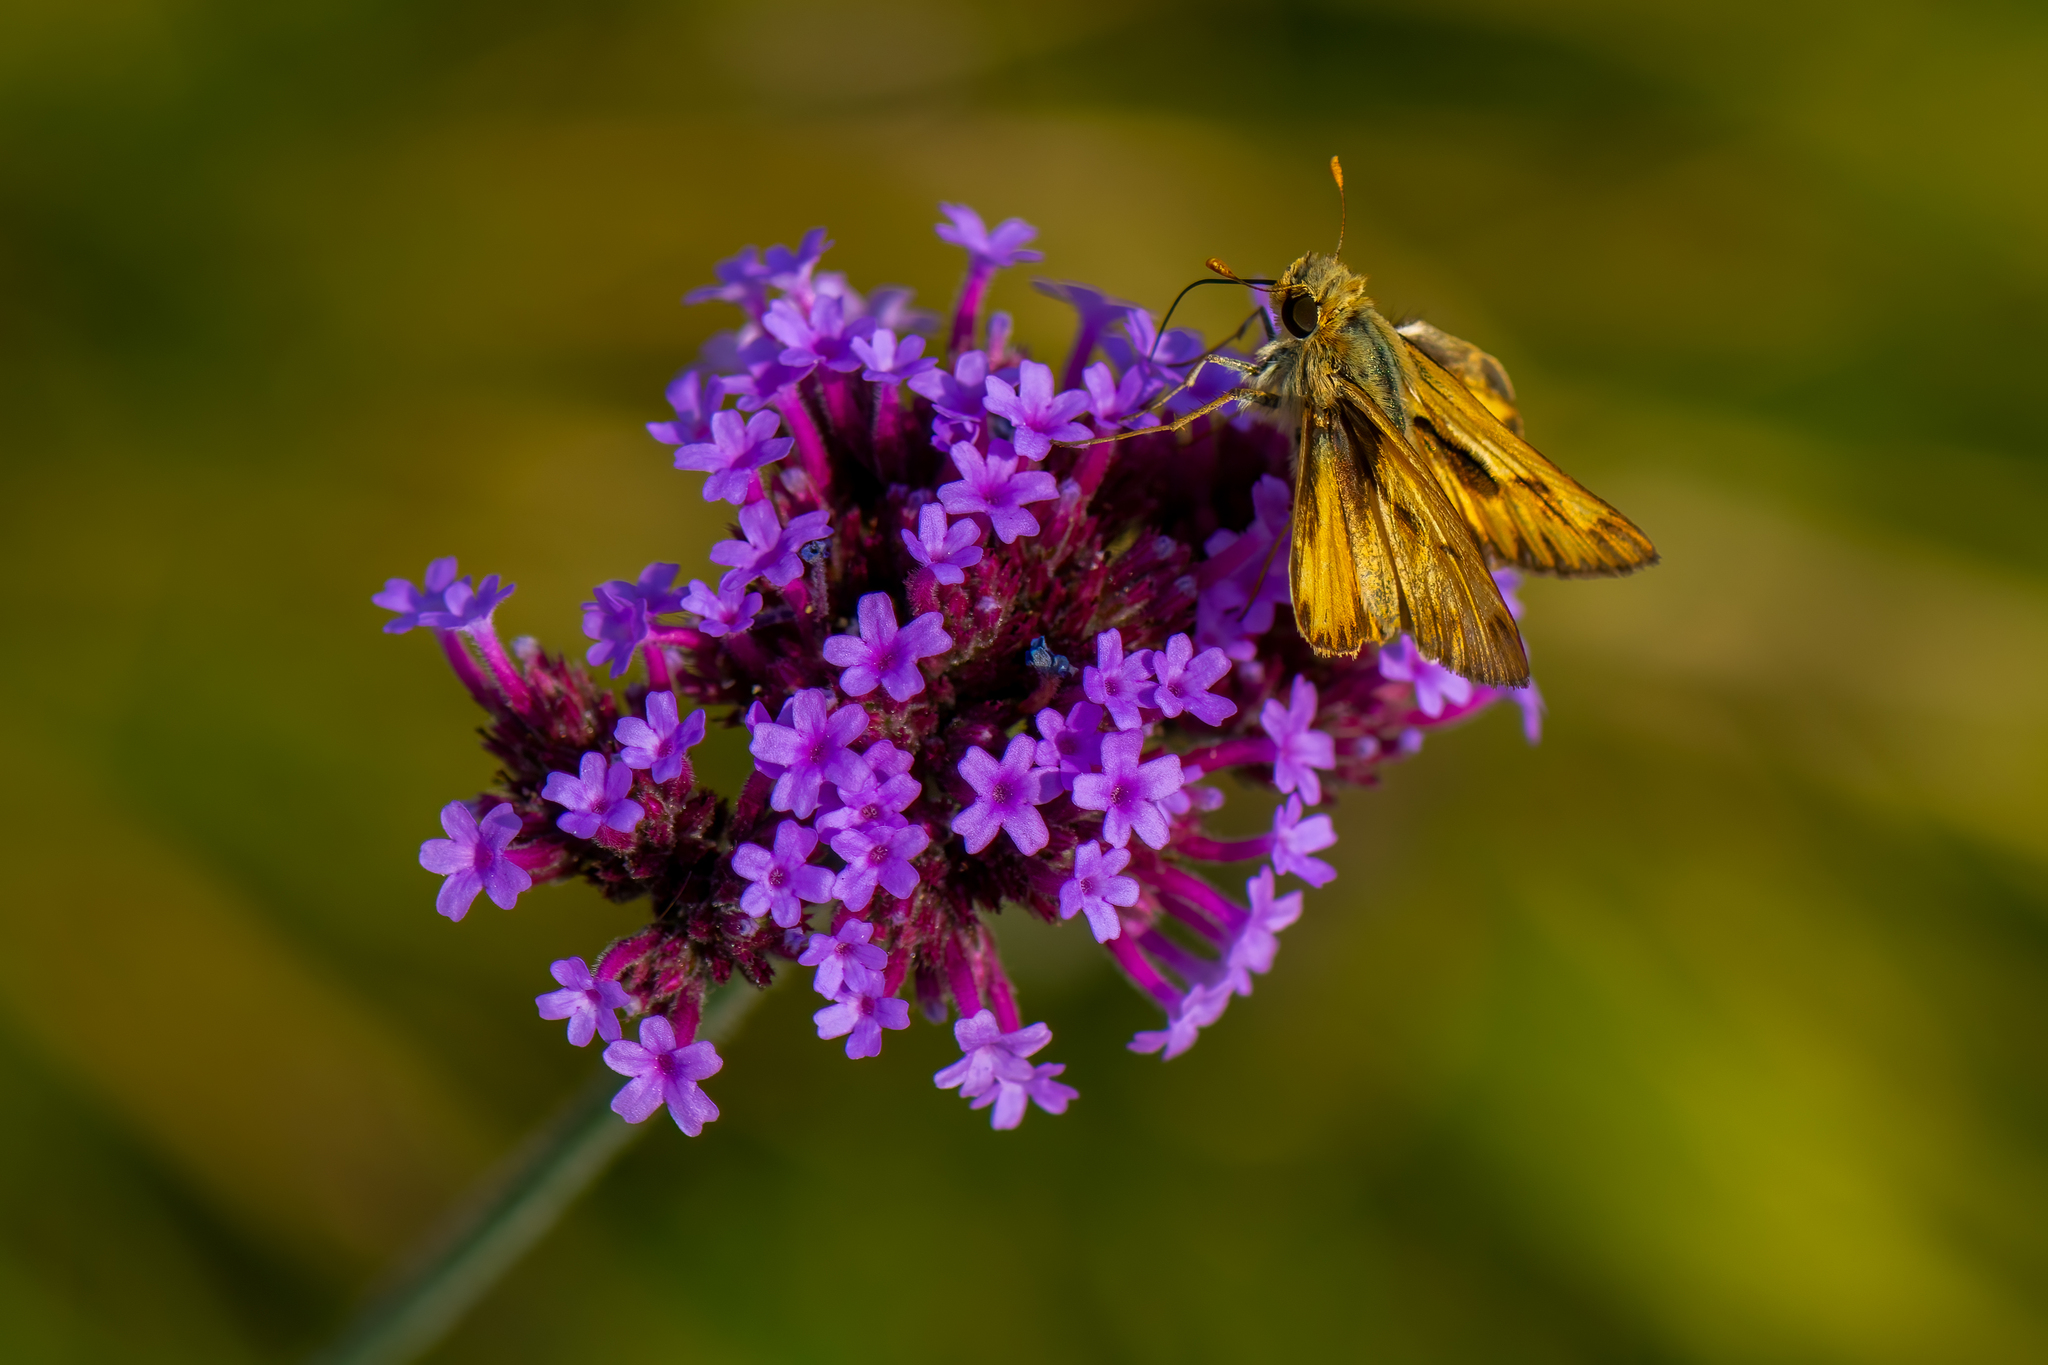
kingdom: Animalia
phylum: Arthropoda
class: Insecta
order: Lepidoptera
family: Hesperiidae
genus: Hylephila
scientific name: Hylephila phyleus
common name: Fiery skipper
